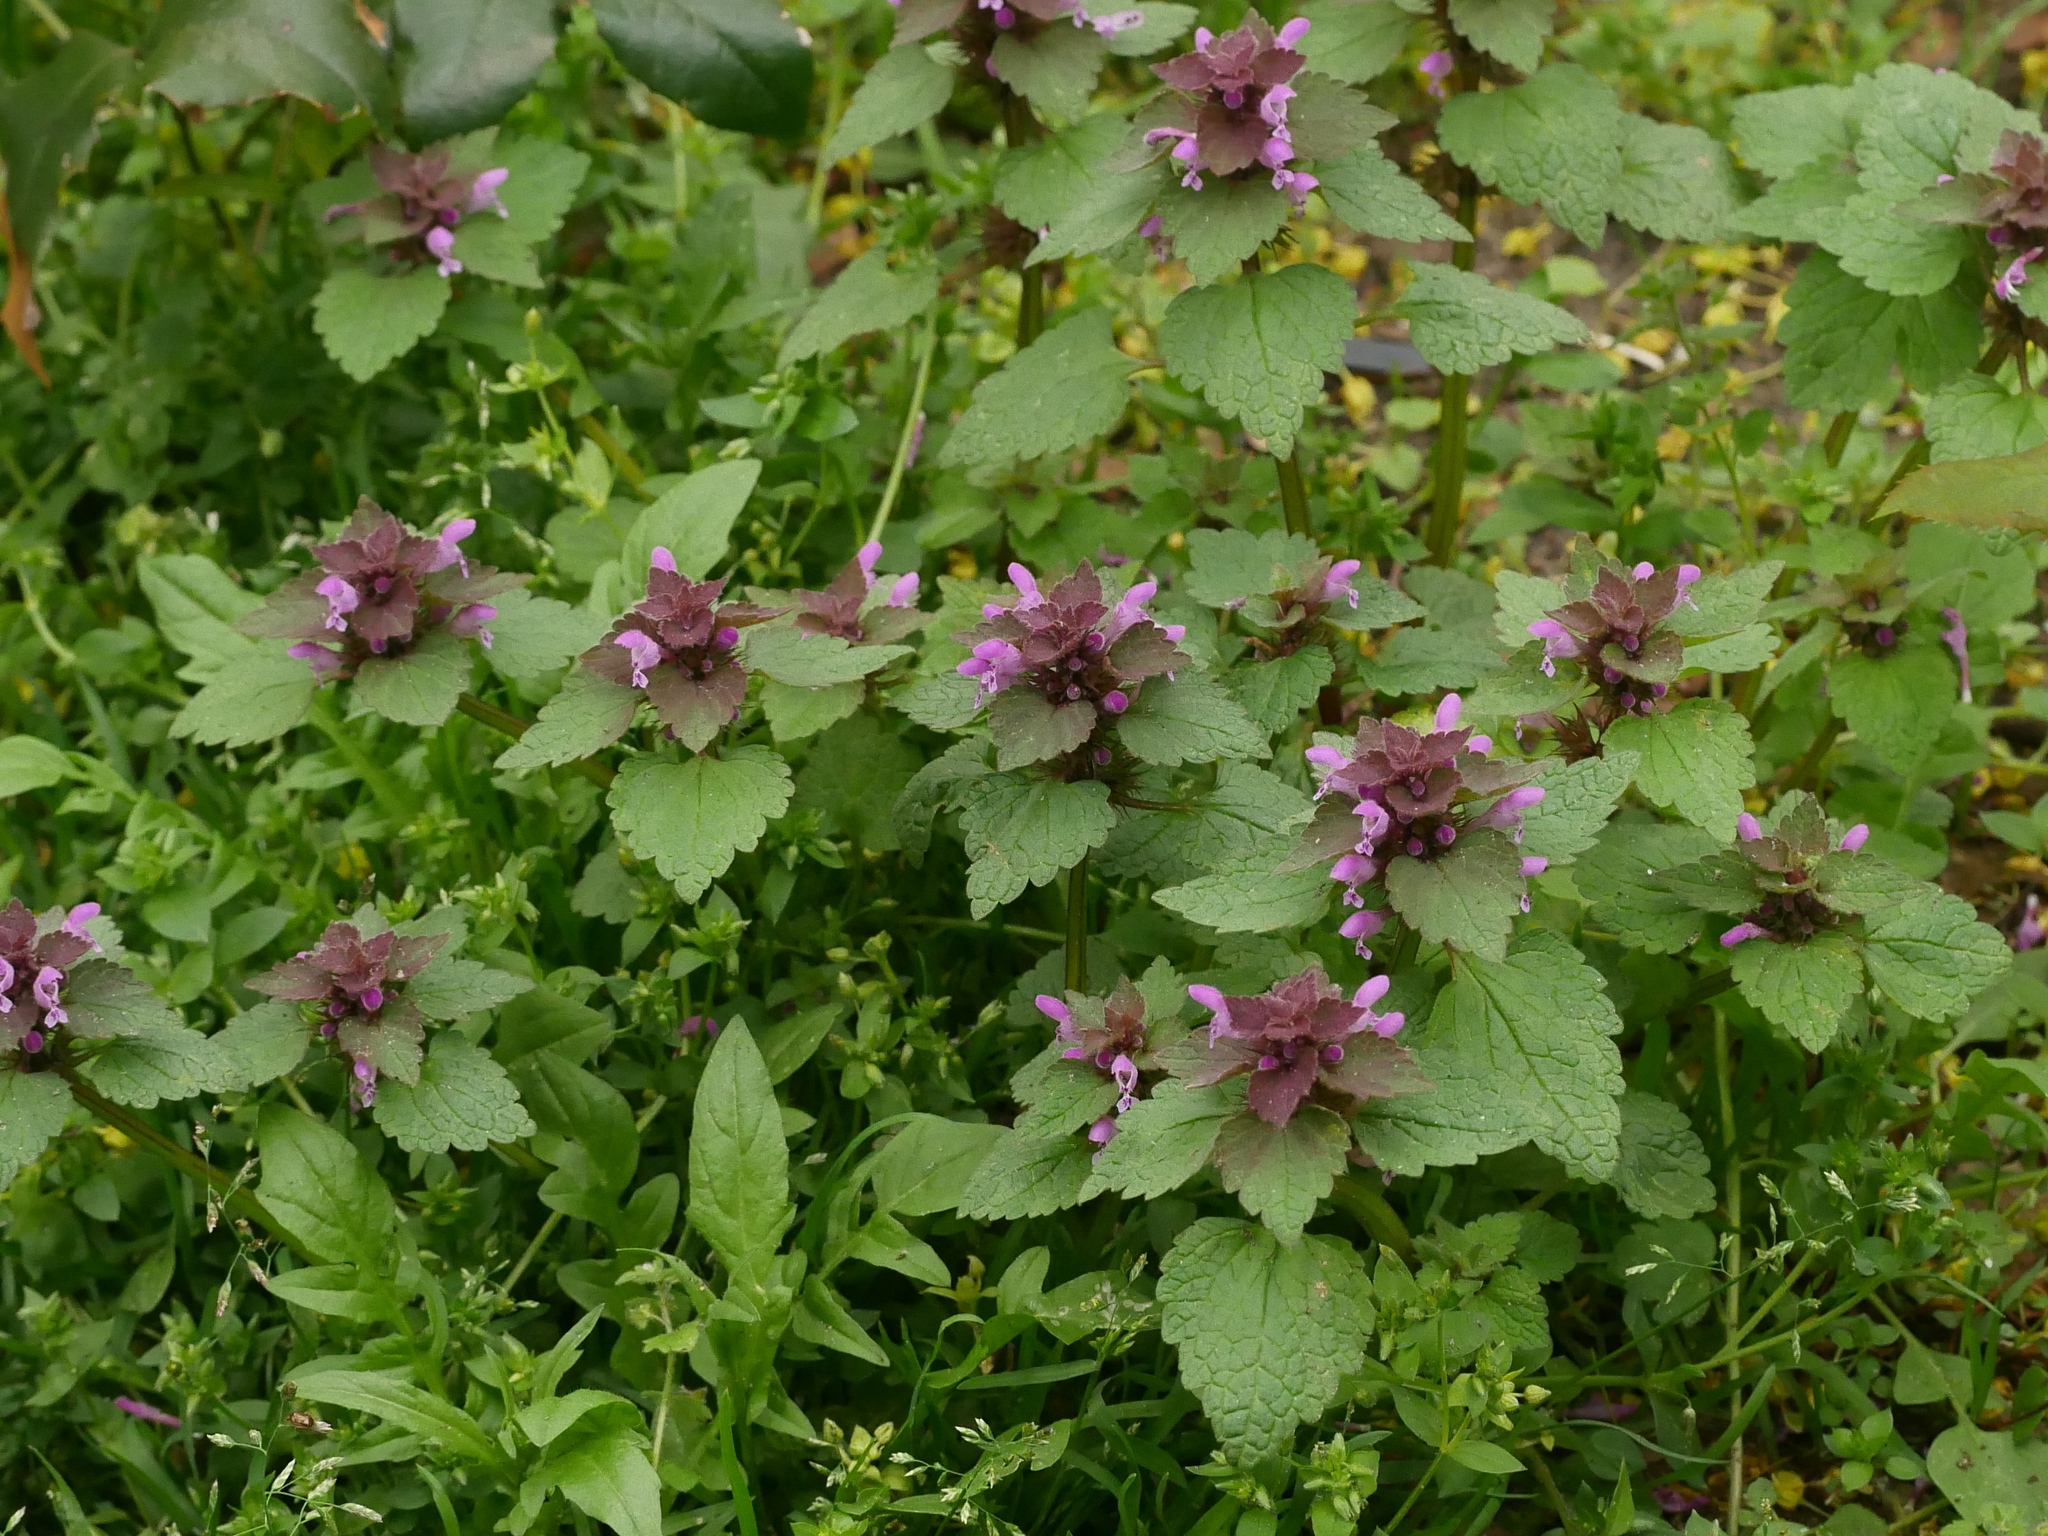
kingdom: Plantae
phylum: Tracheophyta
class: Magnoliopsida
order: Lamiales
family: Lamiaceae
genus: Lamium
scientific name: Lamium purpureum
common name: Red dead-nettle
